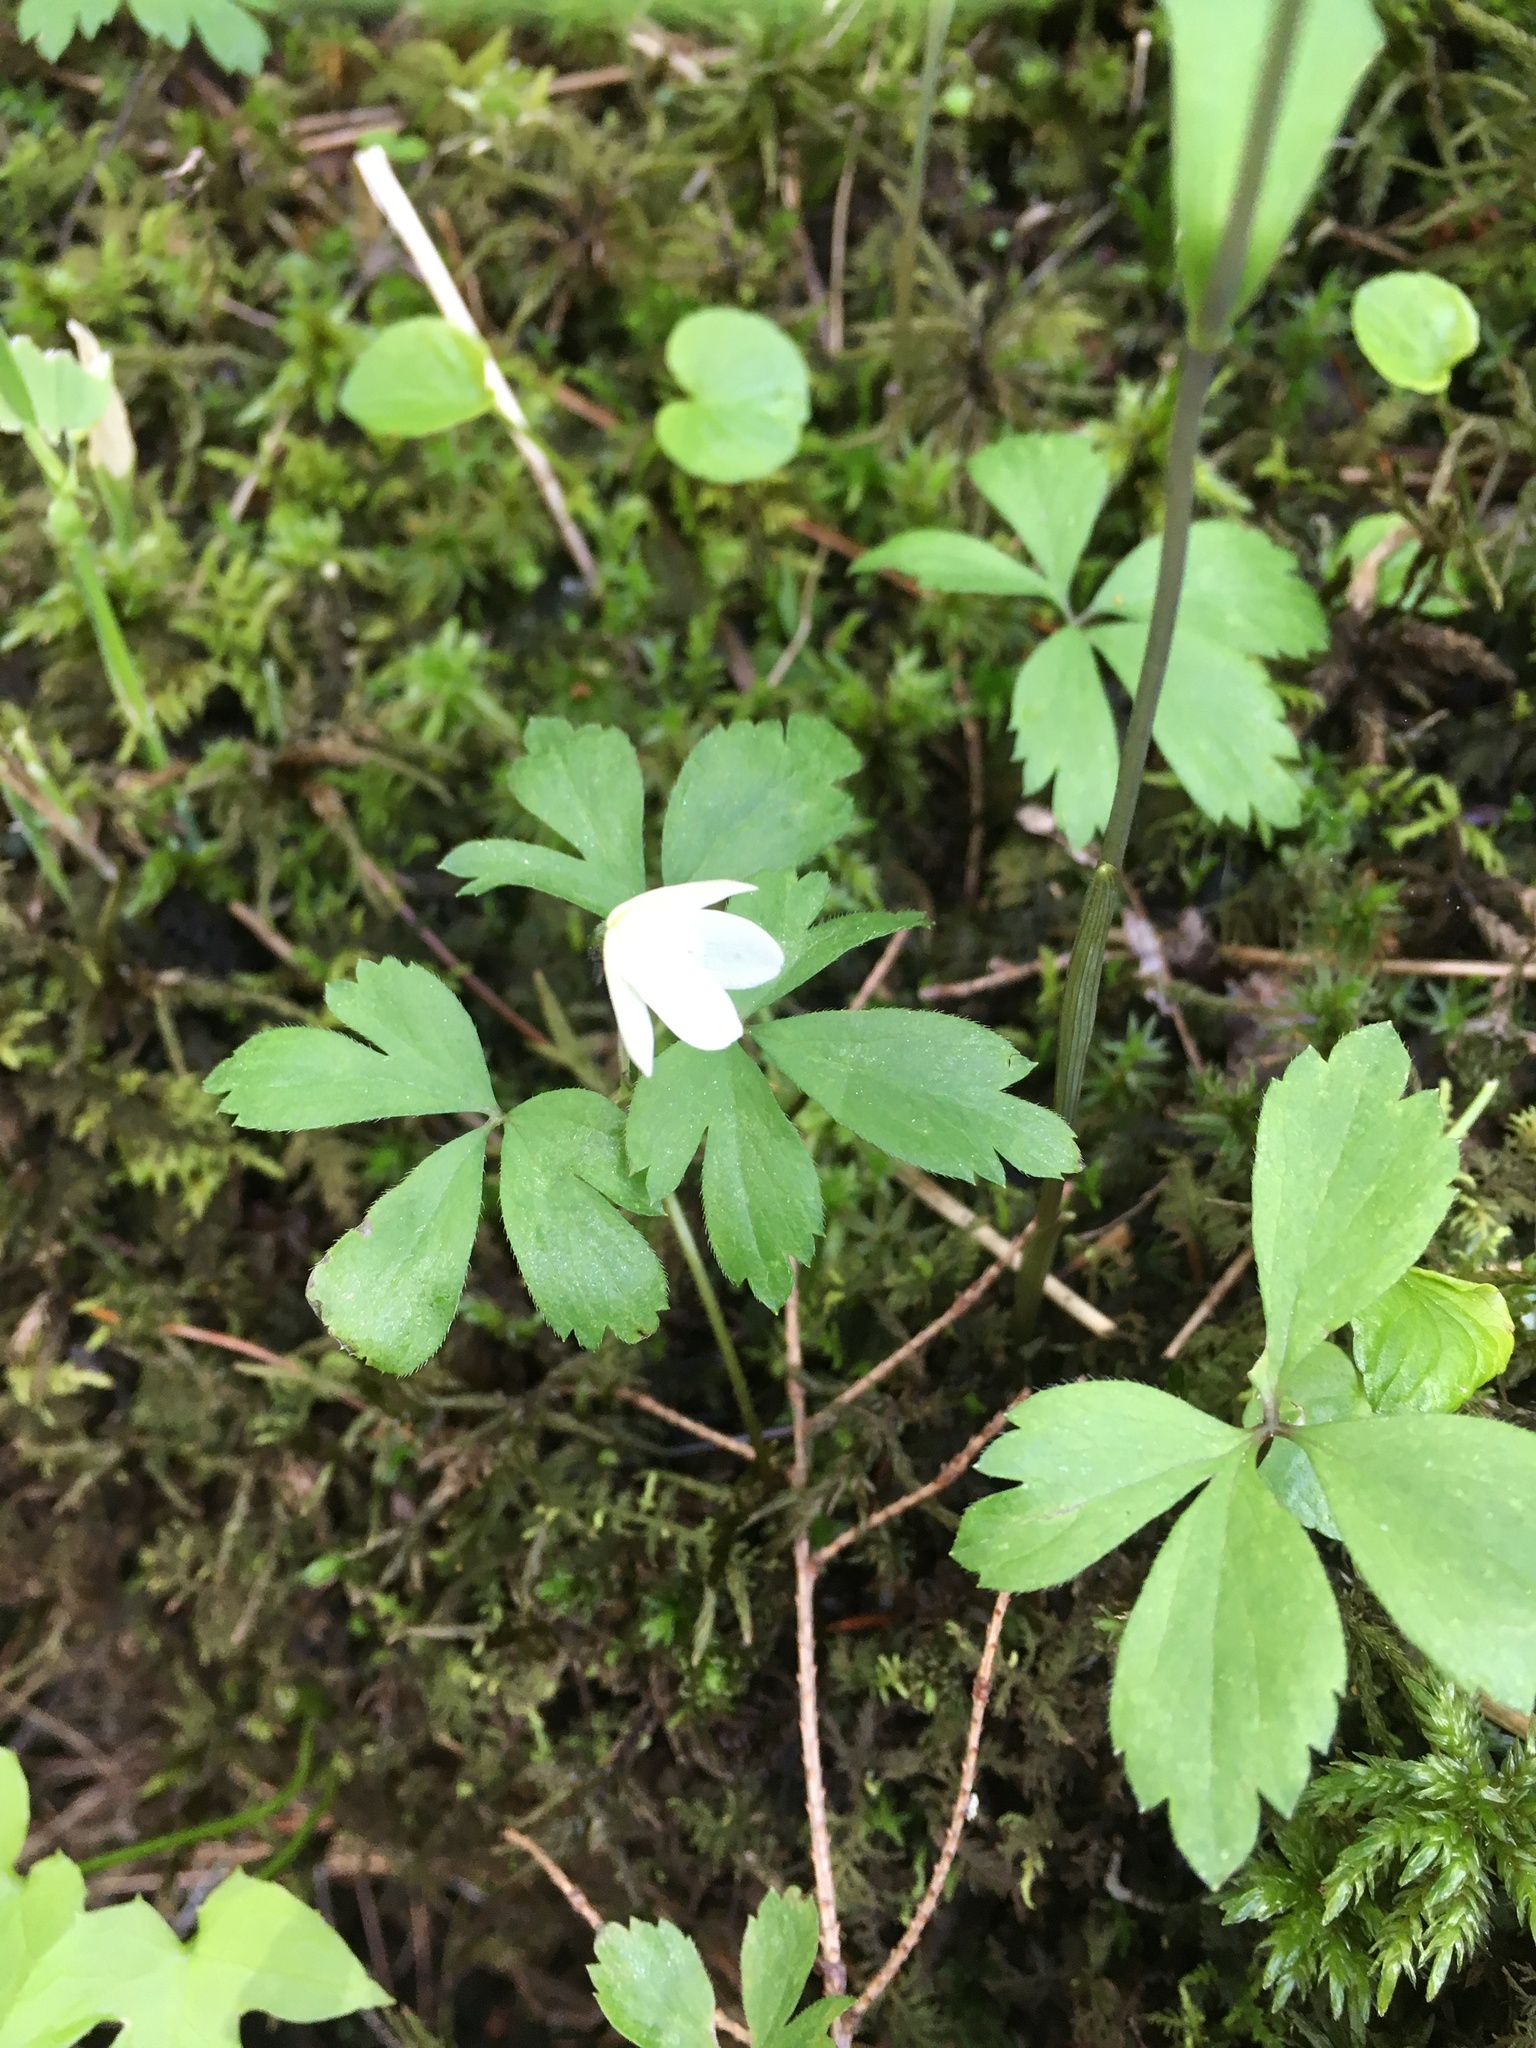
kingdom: Plantae
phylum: Tracheophyta
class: Magnoliopsida
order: Ranunculales
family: Ranunculaceae
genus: Anemone
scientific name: Anemone quinquefolia
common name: Wood anemone
